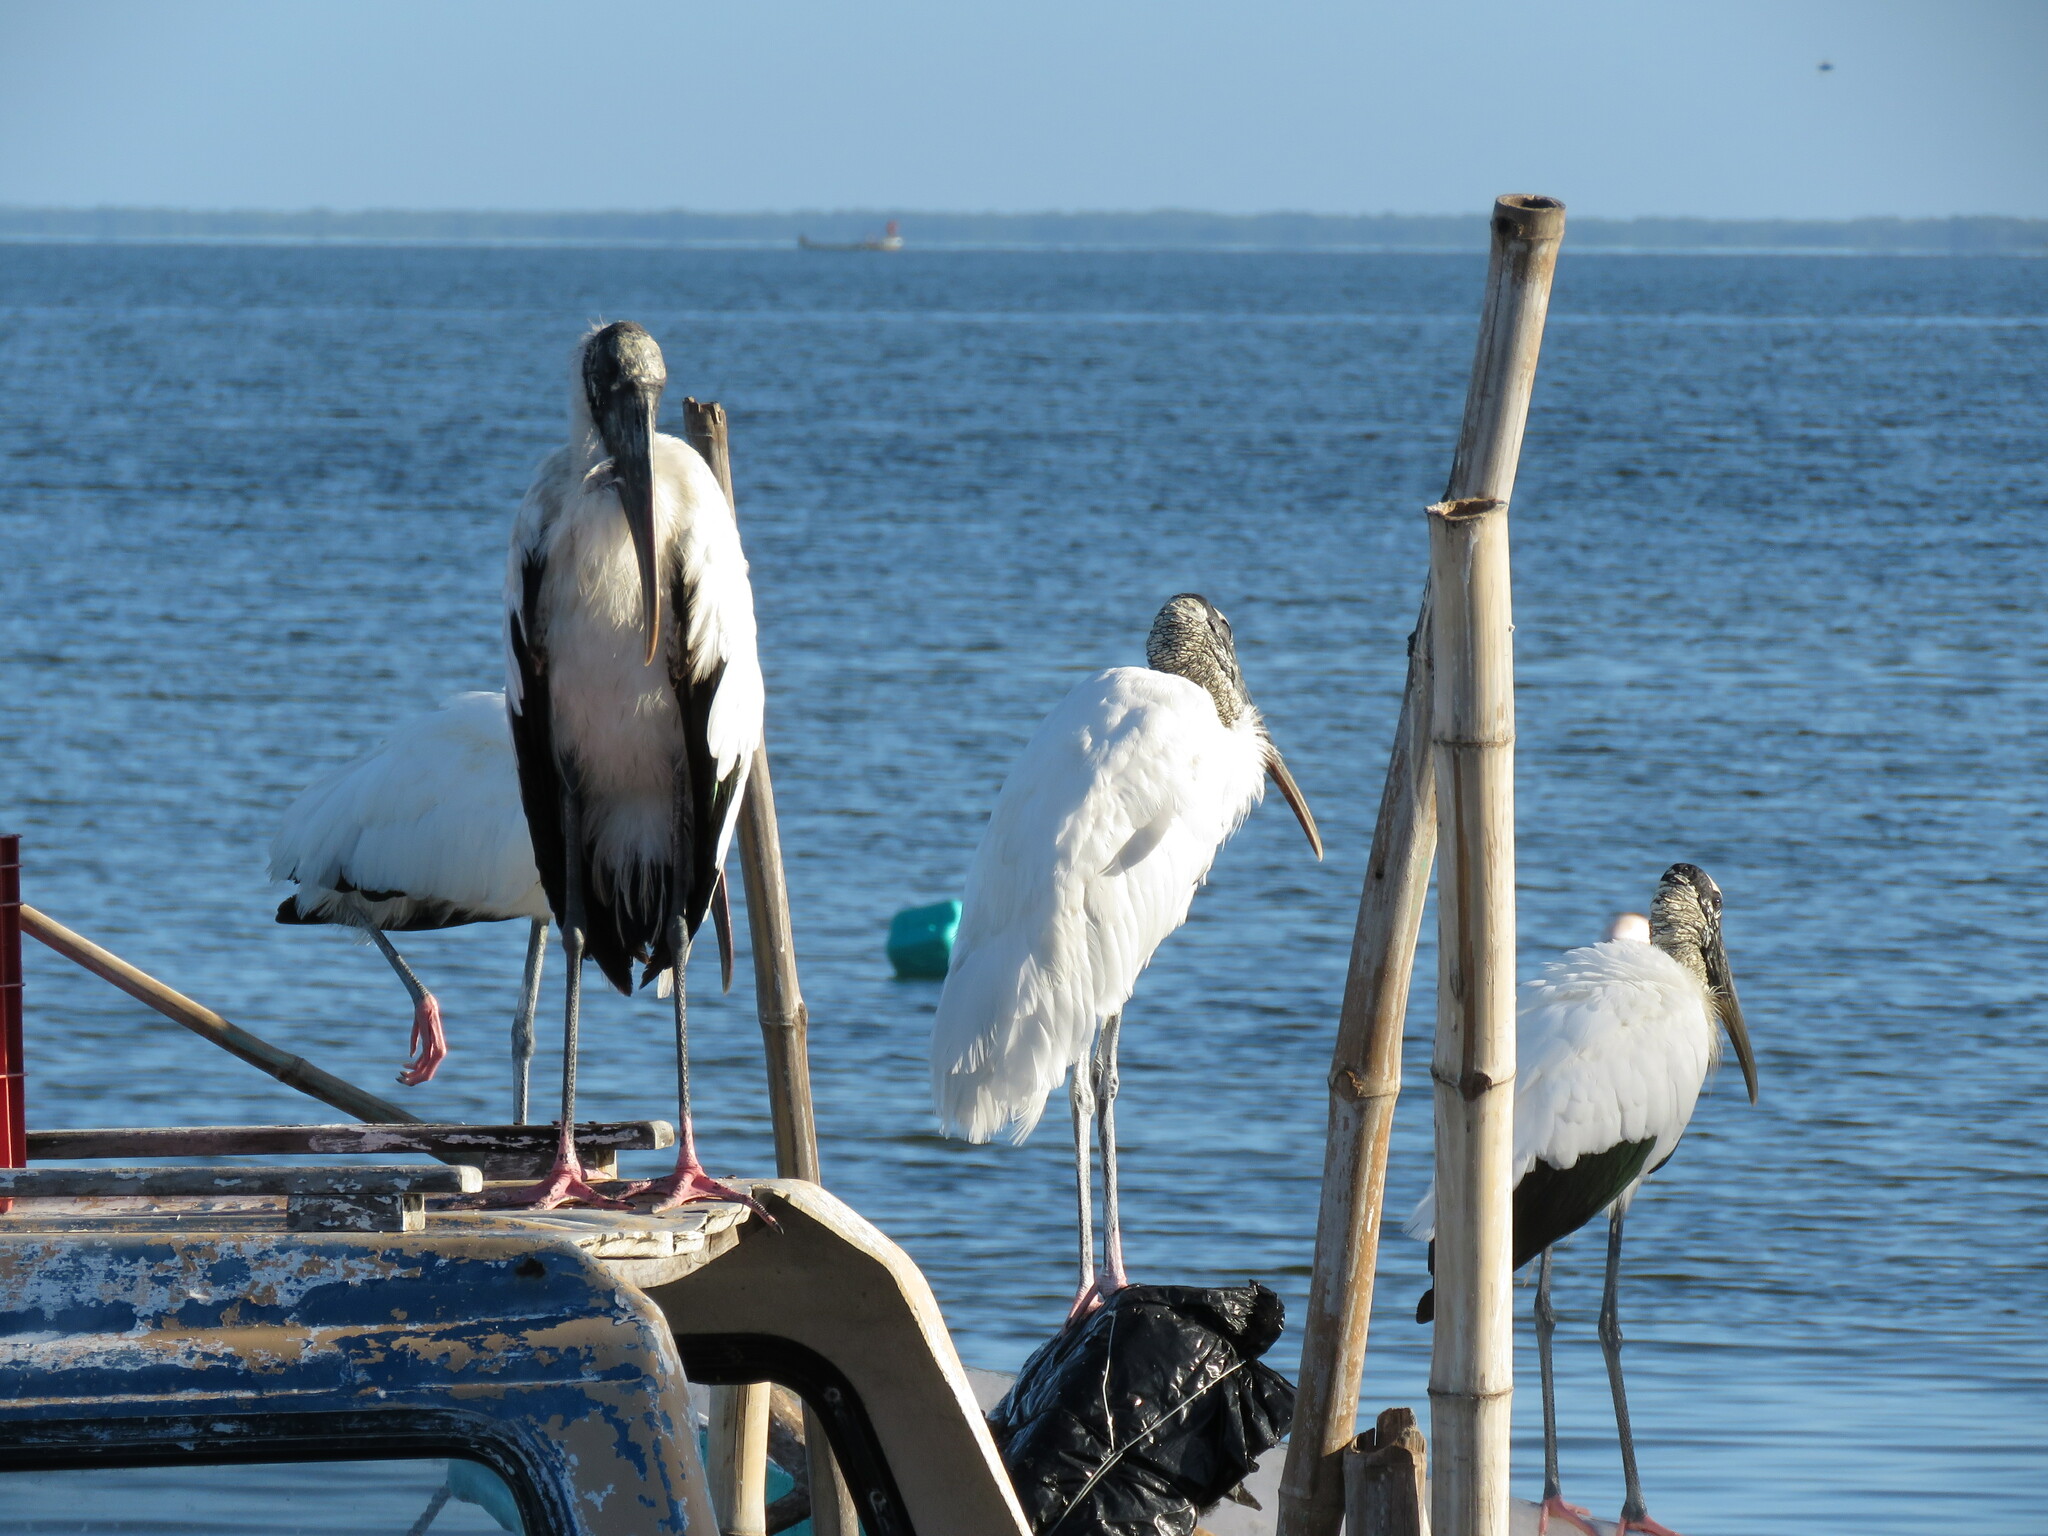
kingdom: Animalia
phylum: Chordata
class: Aves
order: Ciconiiformes
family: Ciconiidae
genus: Mycteria
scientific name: Mycteria americana
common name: Wood stork
